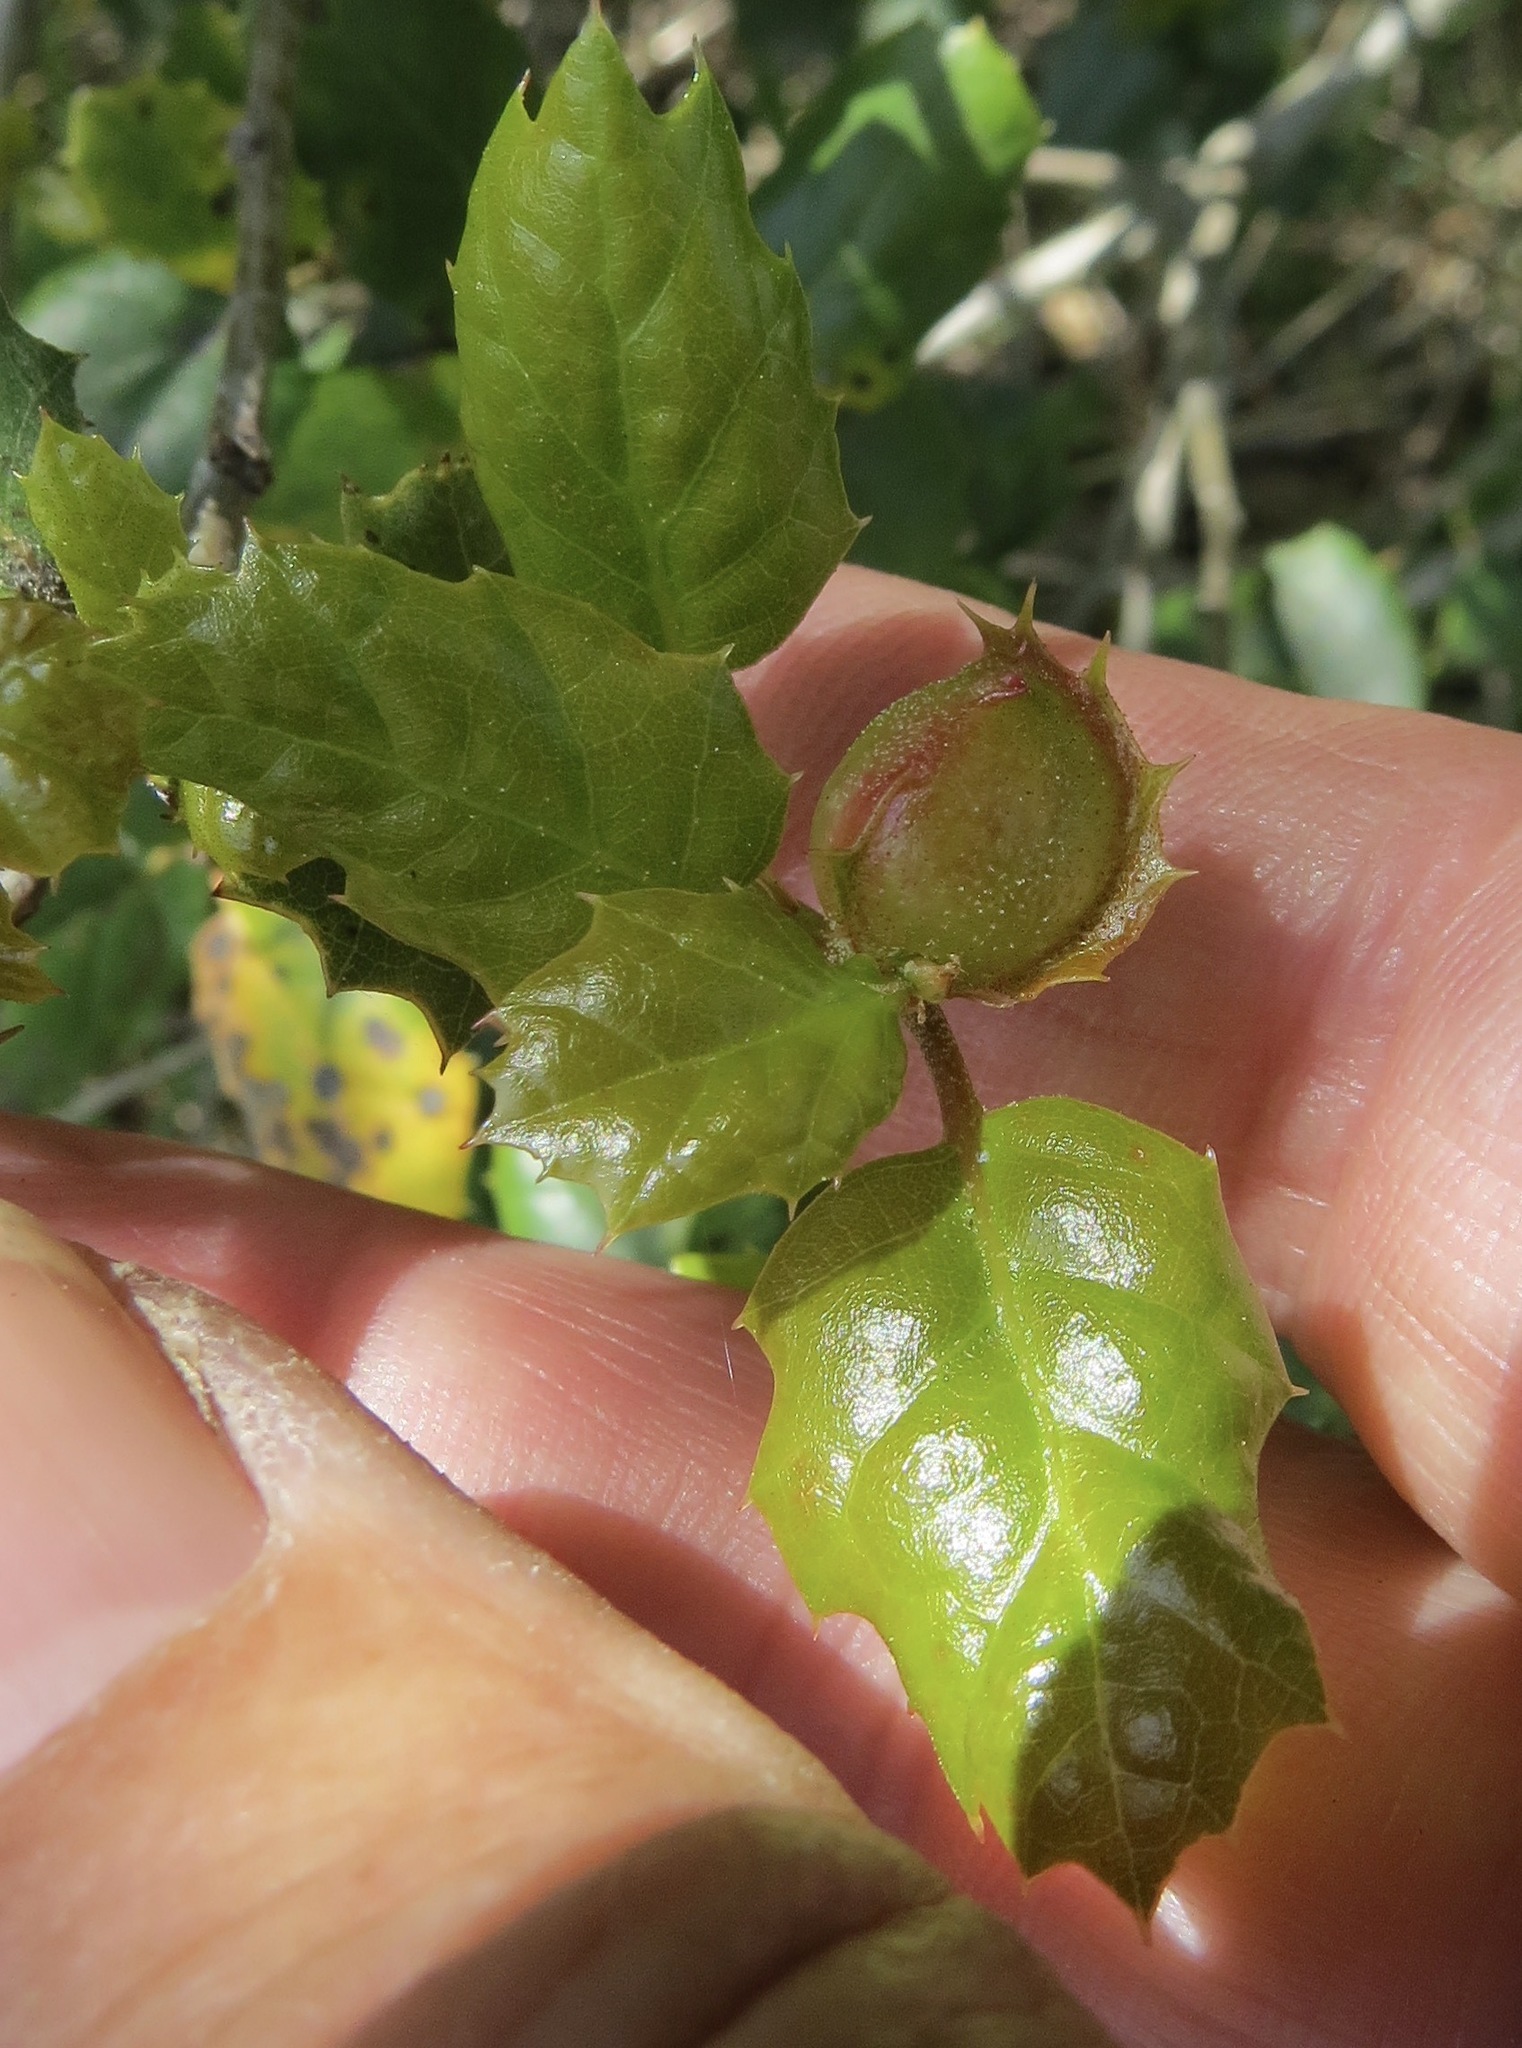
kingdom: Animalia
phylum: Arthropoda
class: Insecta
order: Hymenoptera
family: Cynipidae
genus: Callirhytis
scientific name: Callirhytis
